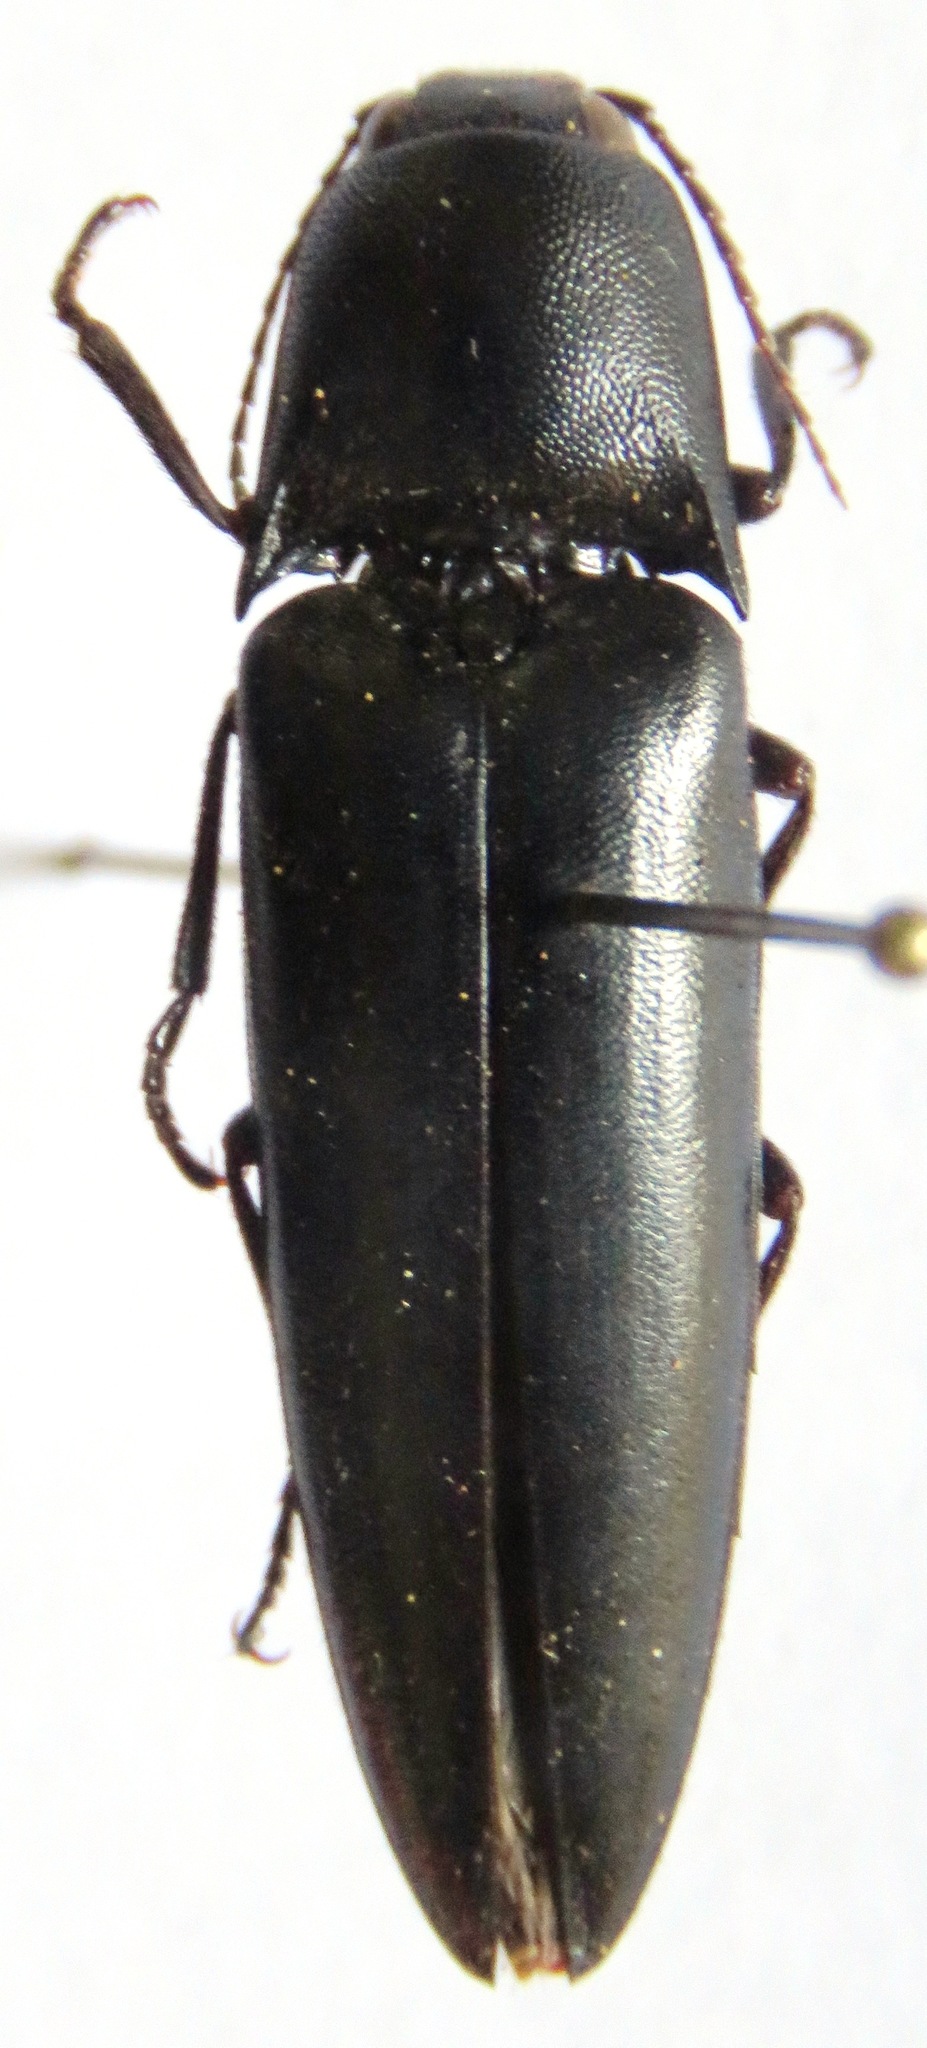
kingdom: Animalia
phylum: Arthropoda
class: Insecta
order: Coleoptera
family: Elateridae
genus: Orthostethus
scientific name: Orthostethus
